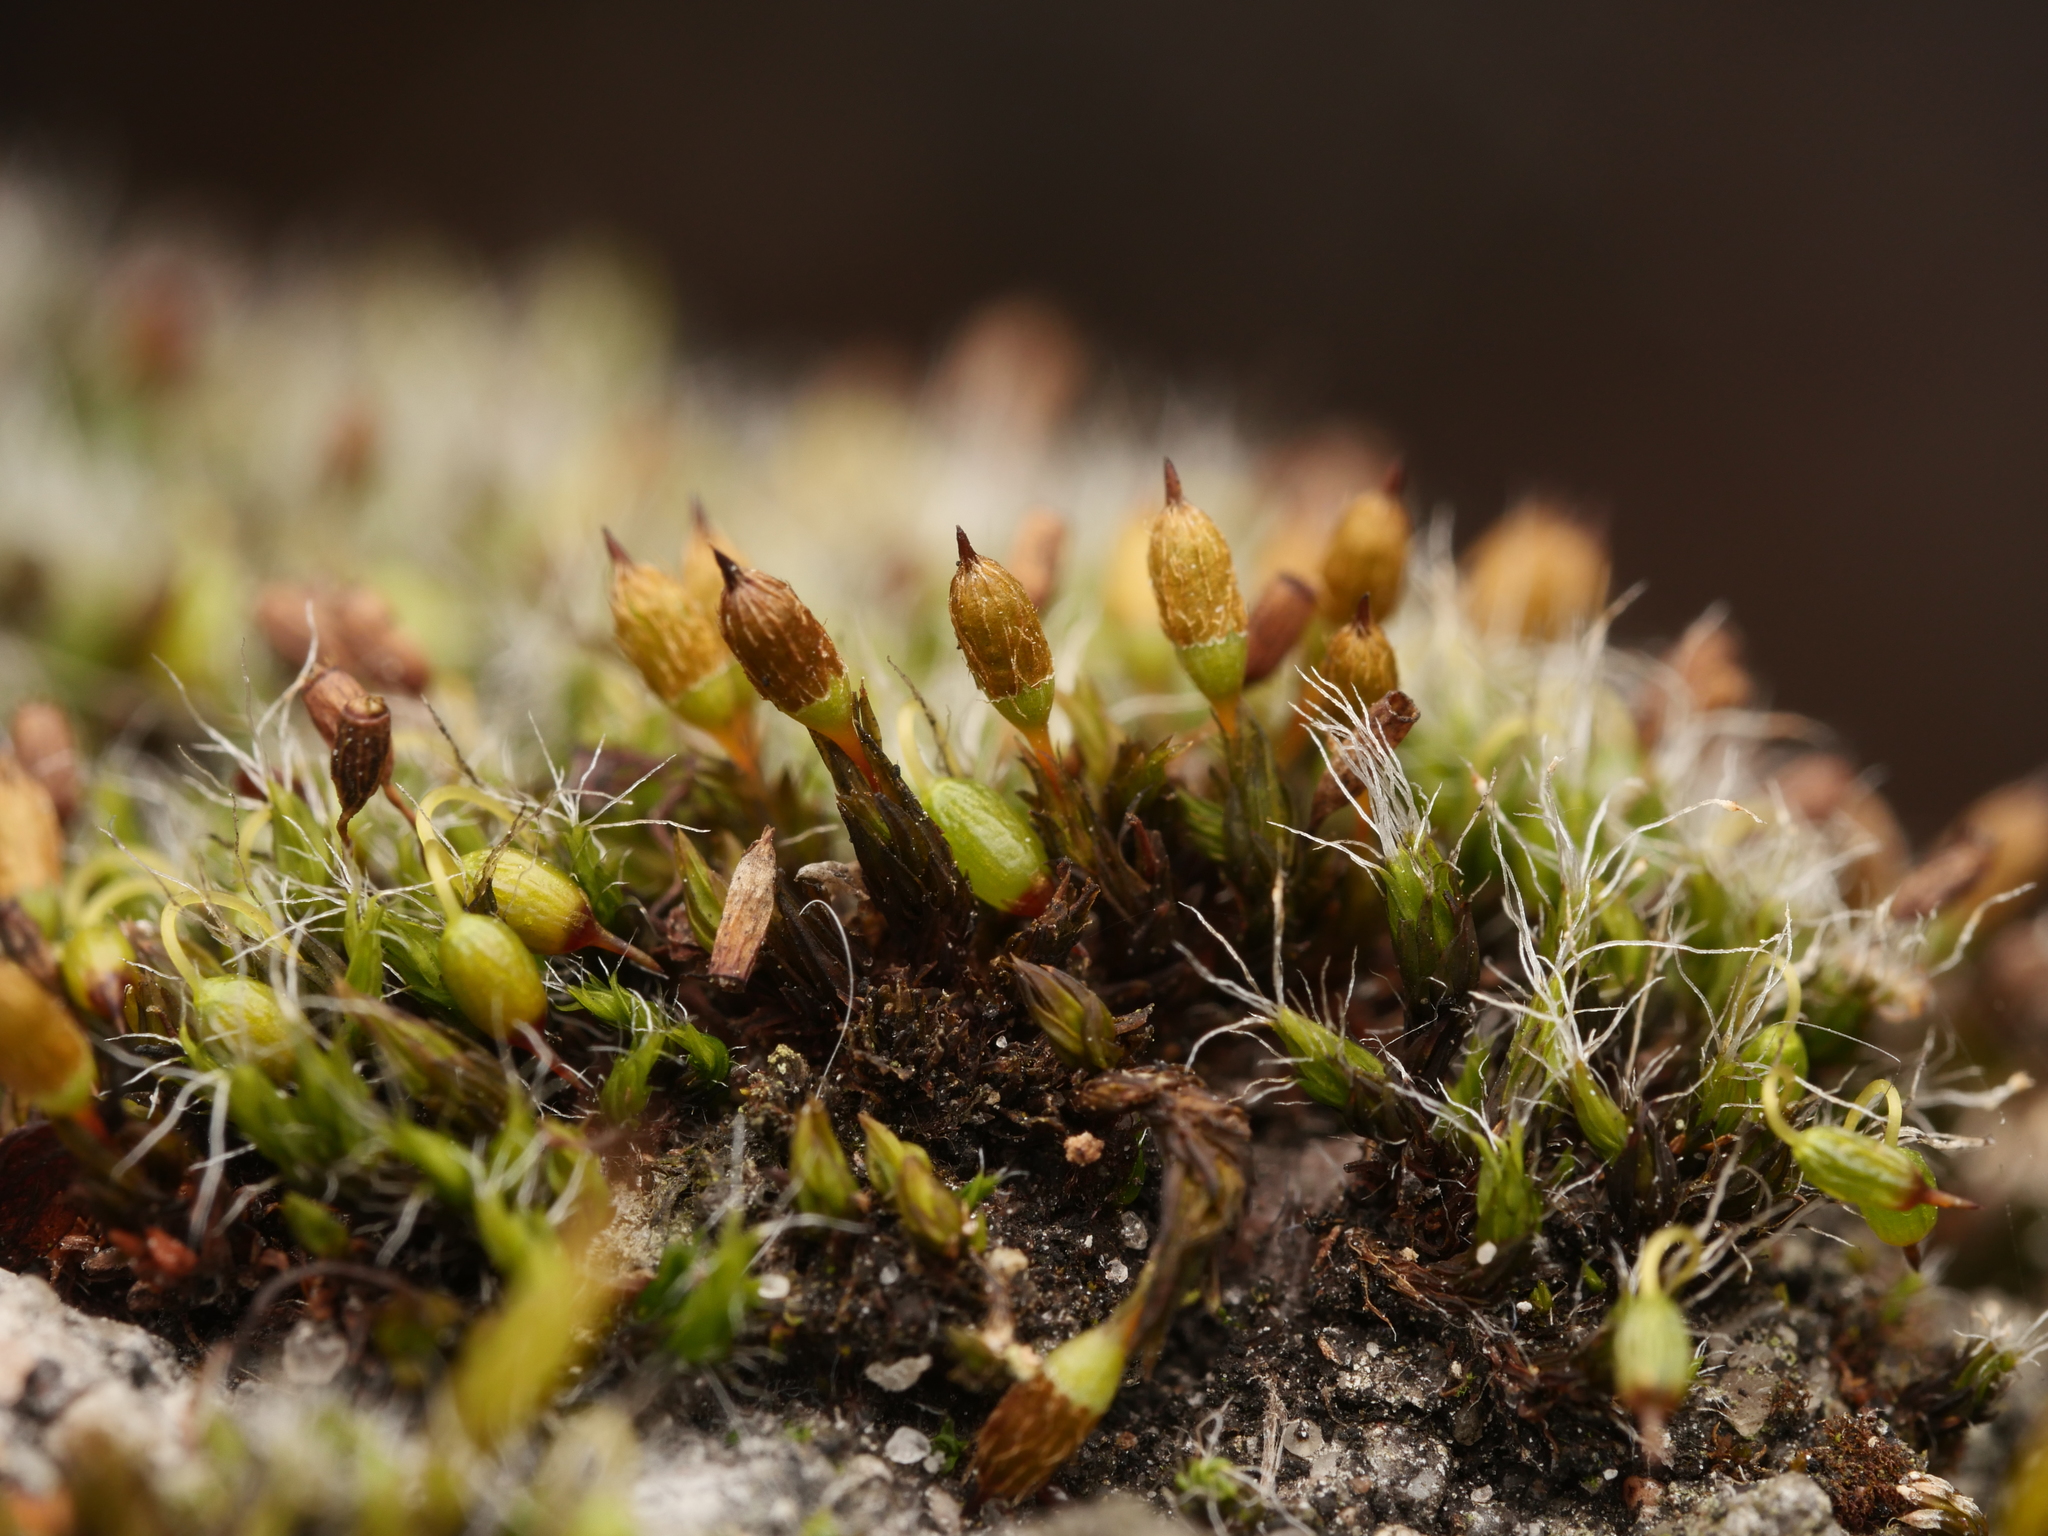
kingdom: Plantae
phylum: Bryophyta
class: Bryopsida
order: Orthotrichales
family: Orthotrichaceae
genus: Orthotrichum
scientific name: Orthotrichum anomalum
